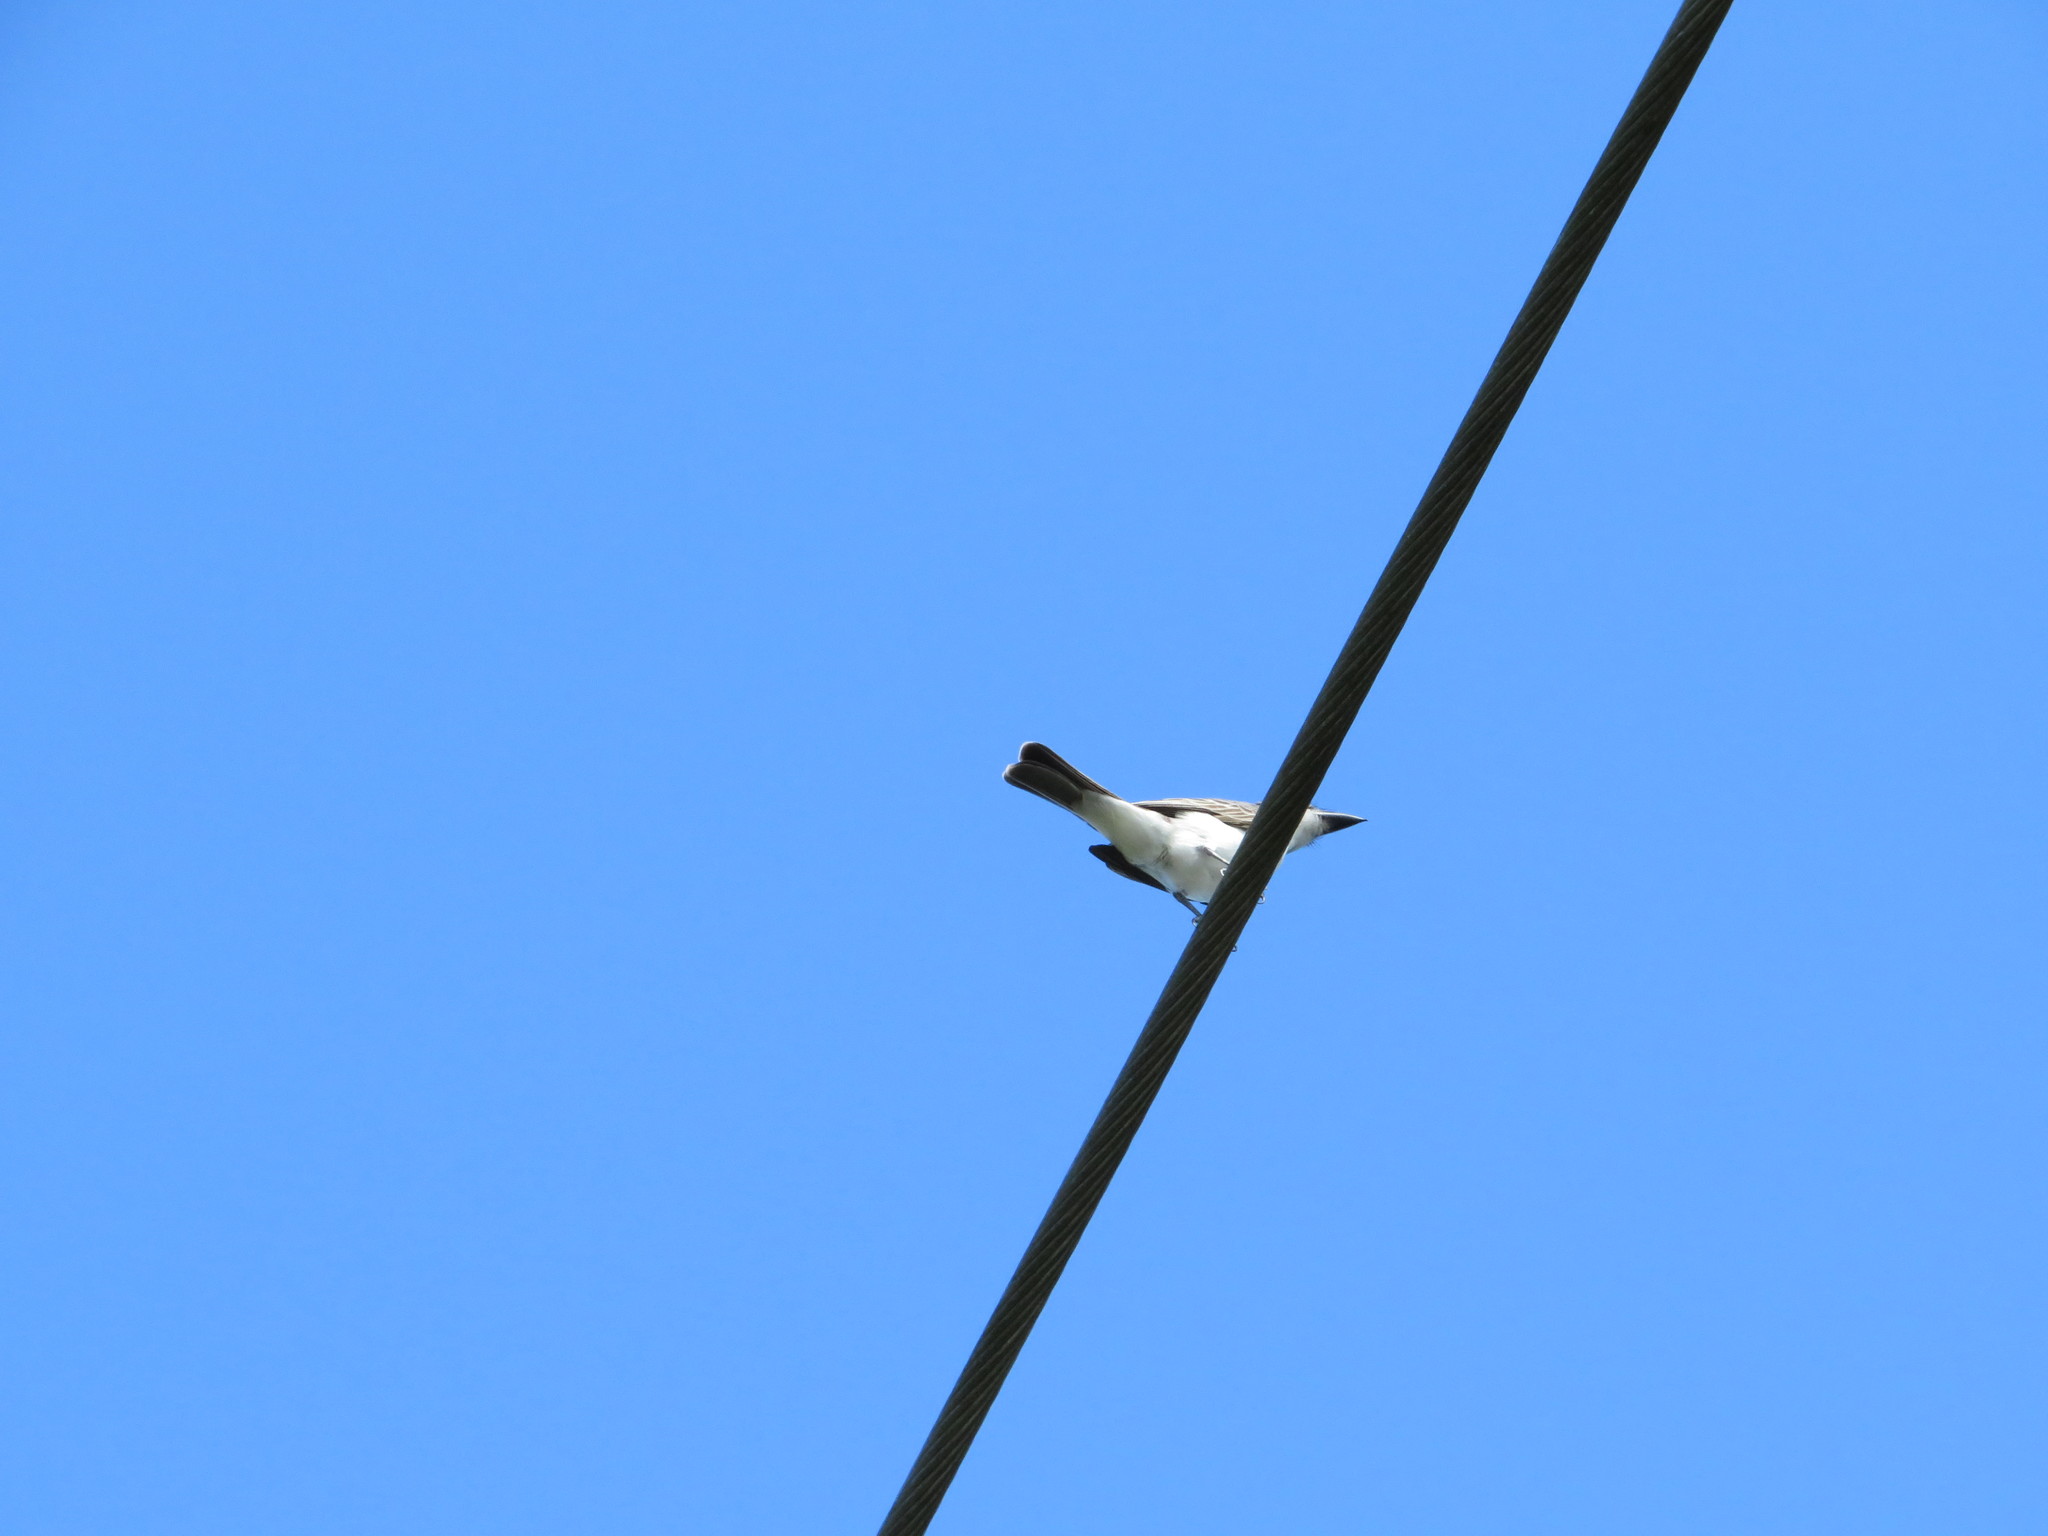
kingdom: Animalia
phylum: Chordata
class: Aves
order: Passeriformes
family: Tyrannidae
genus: Tyrannus
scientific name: Tyrannus dominicensis
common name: Gray kingbird
